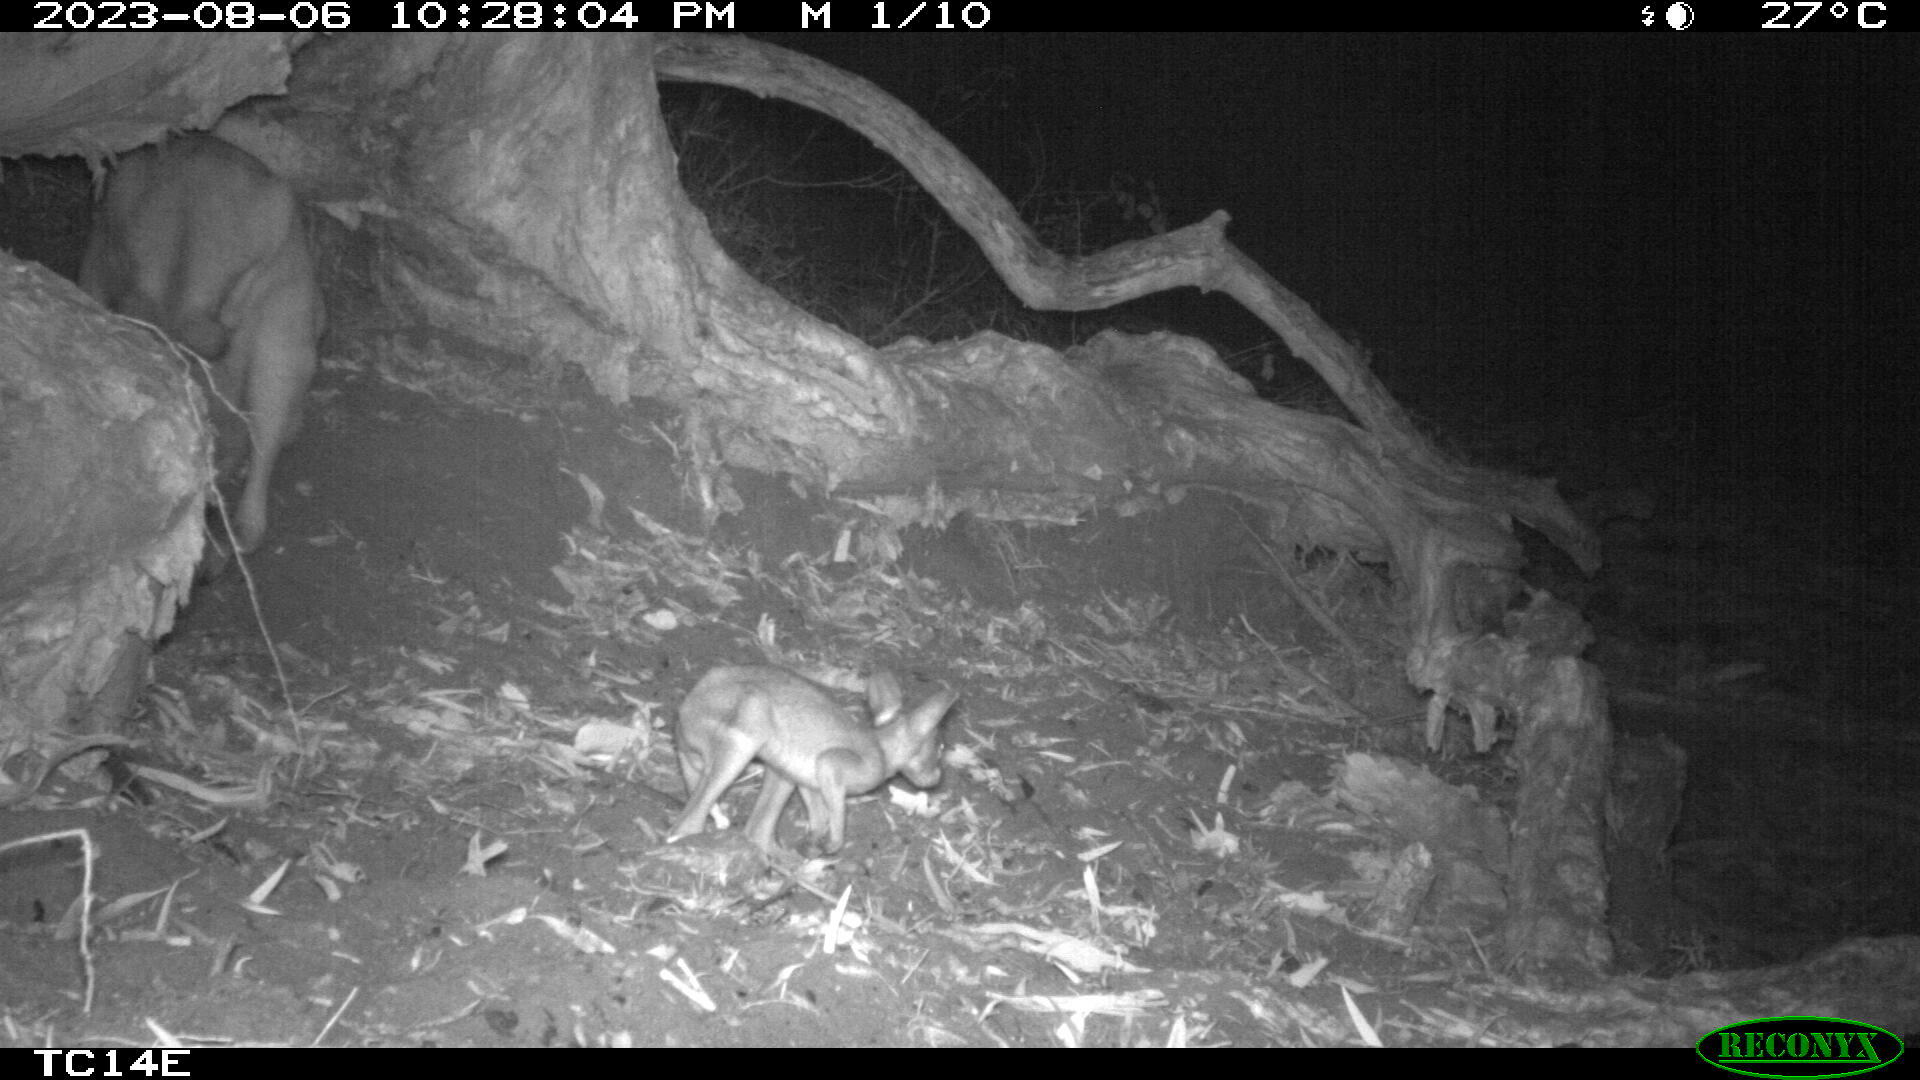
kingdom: Animalia
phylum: Chordata
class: Mammalia
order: Diprotodontia
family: Macropodidae
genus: Macropus
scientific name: Macropus agilis
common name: Agile wallaby
